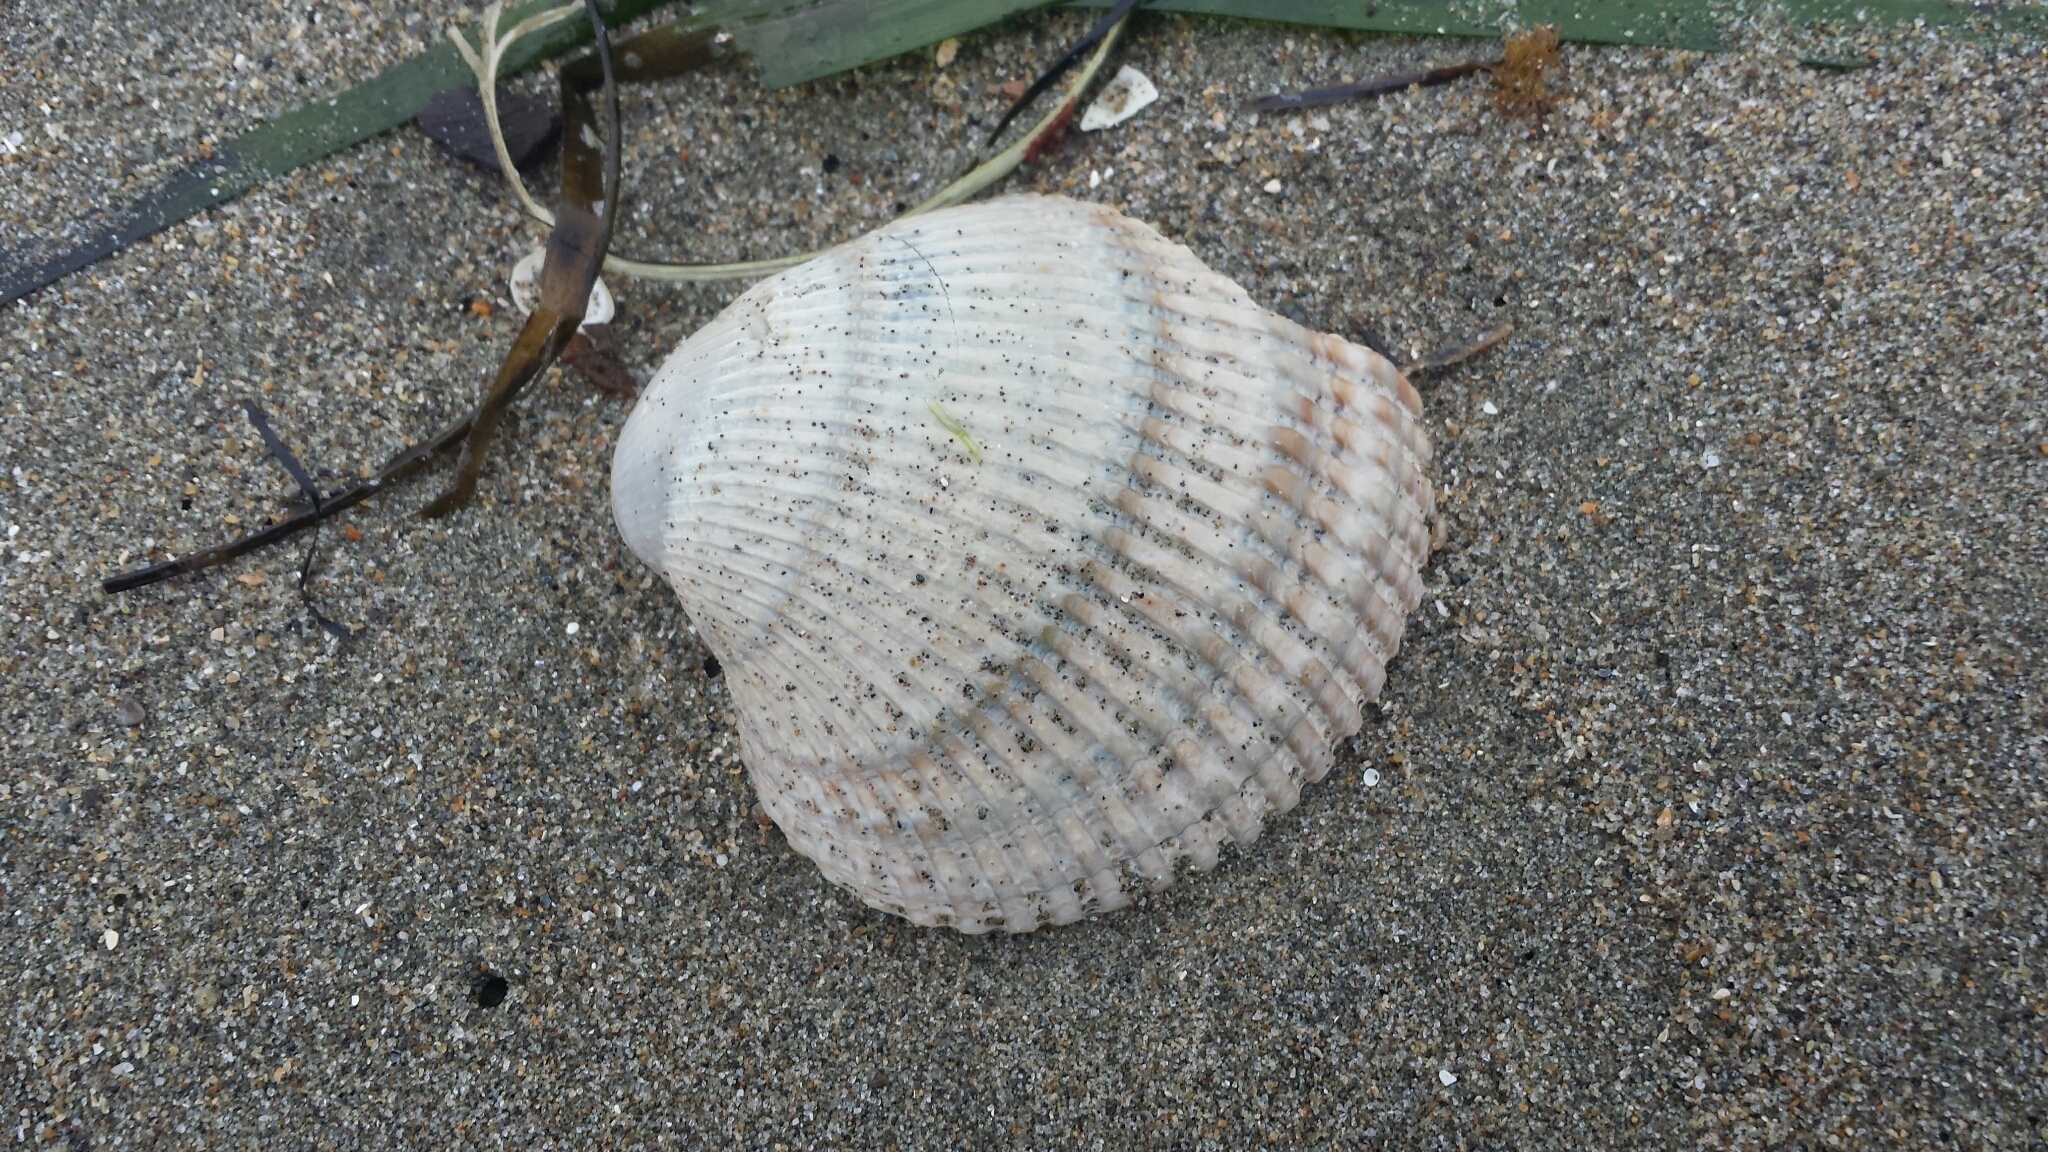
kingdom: Animalia
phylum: Mollusca
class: Bivalvia
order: Cardiida
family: Cardiidae
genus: Clinocardium
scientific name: Clinocardium nuttallii
